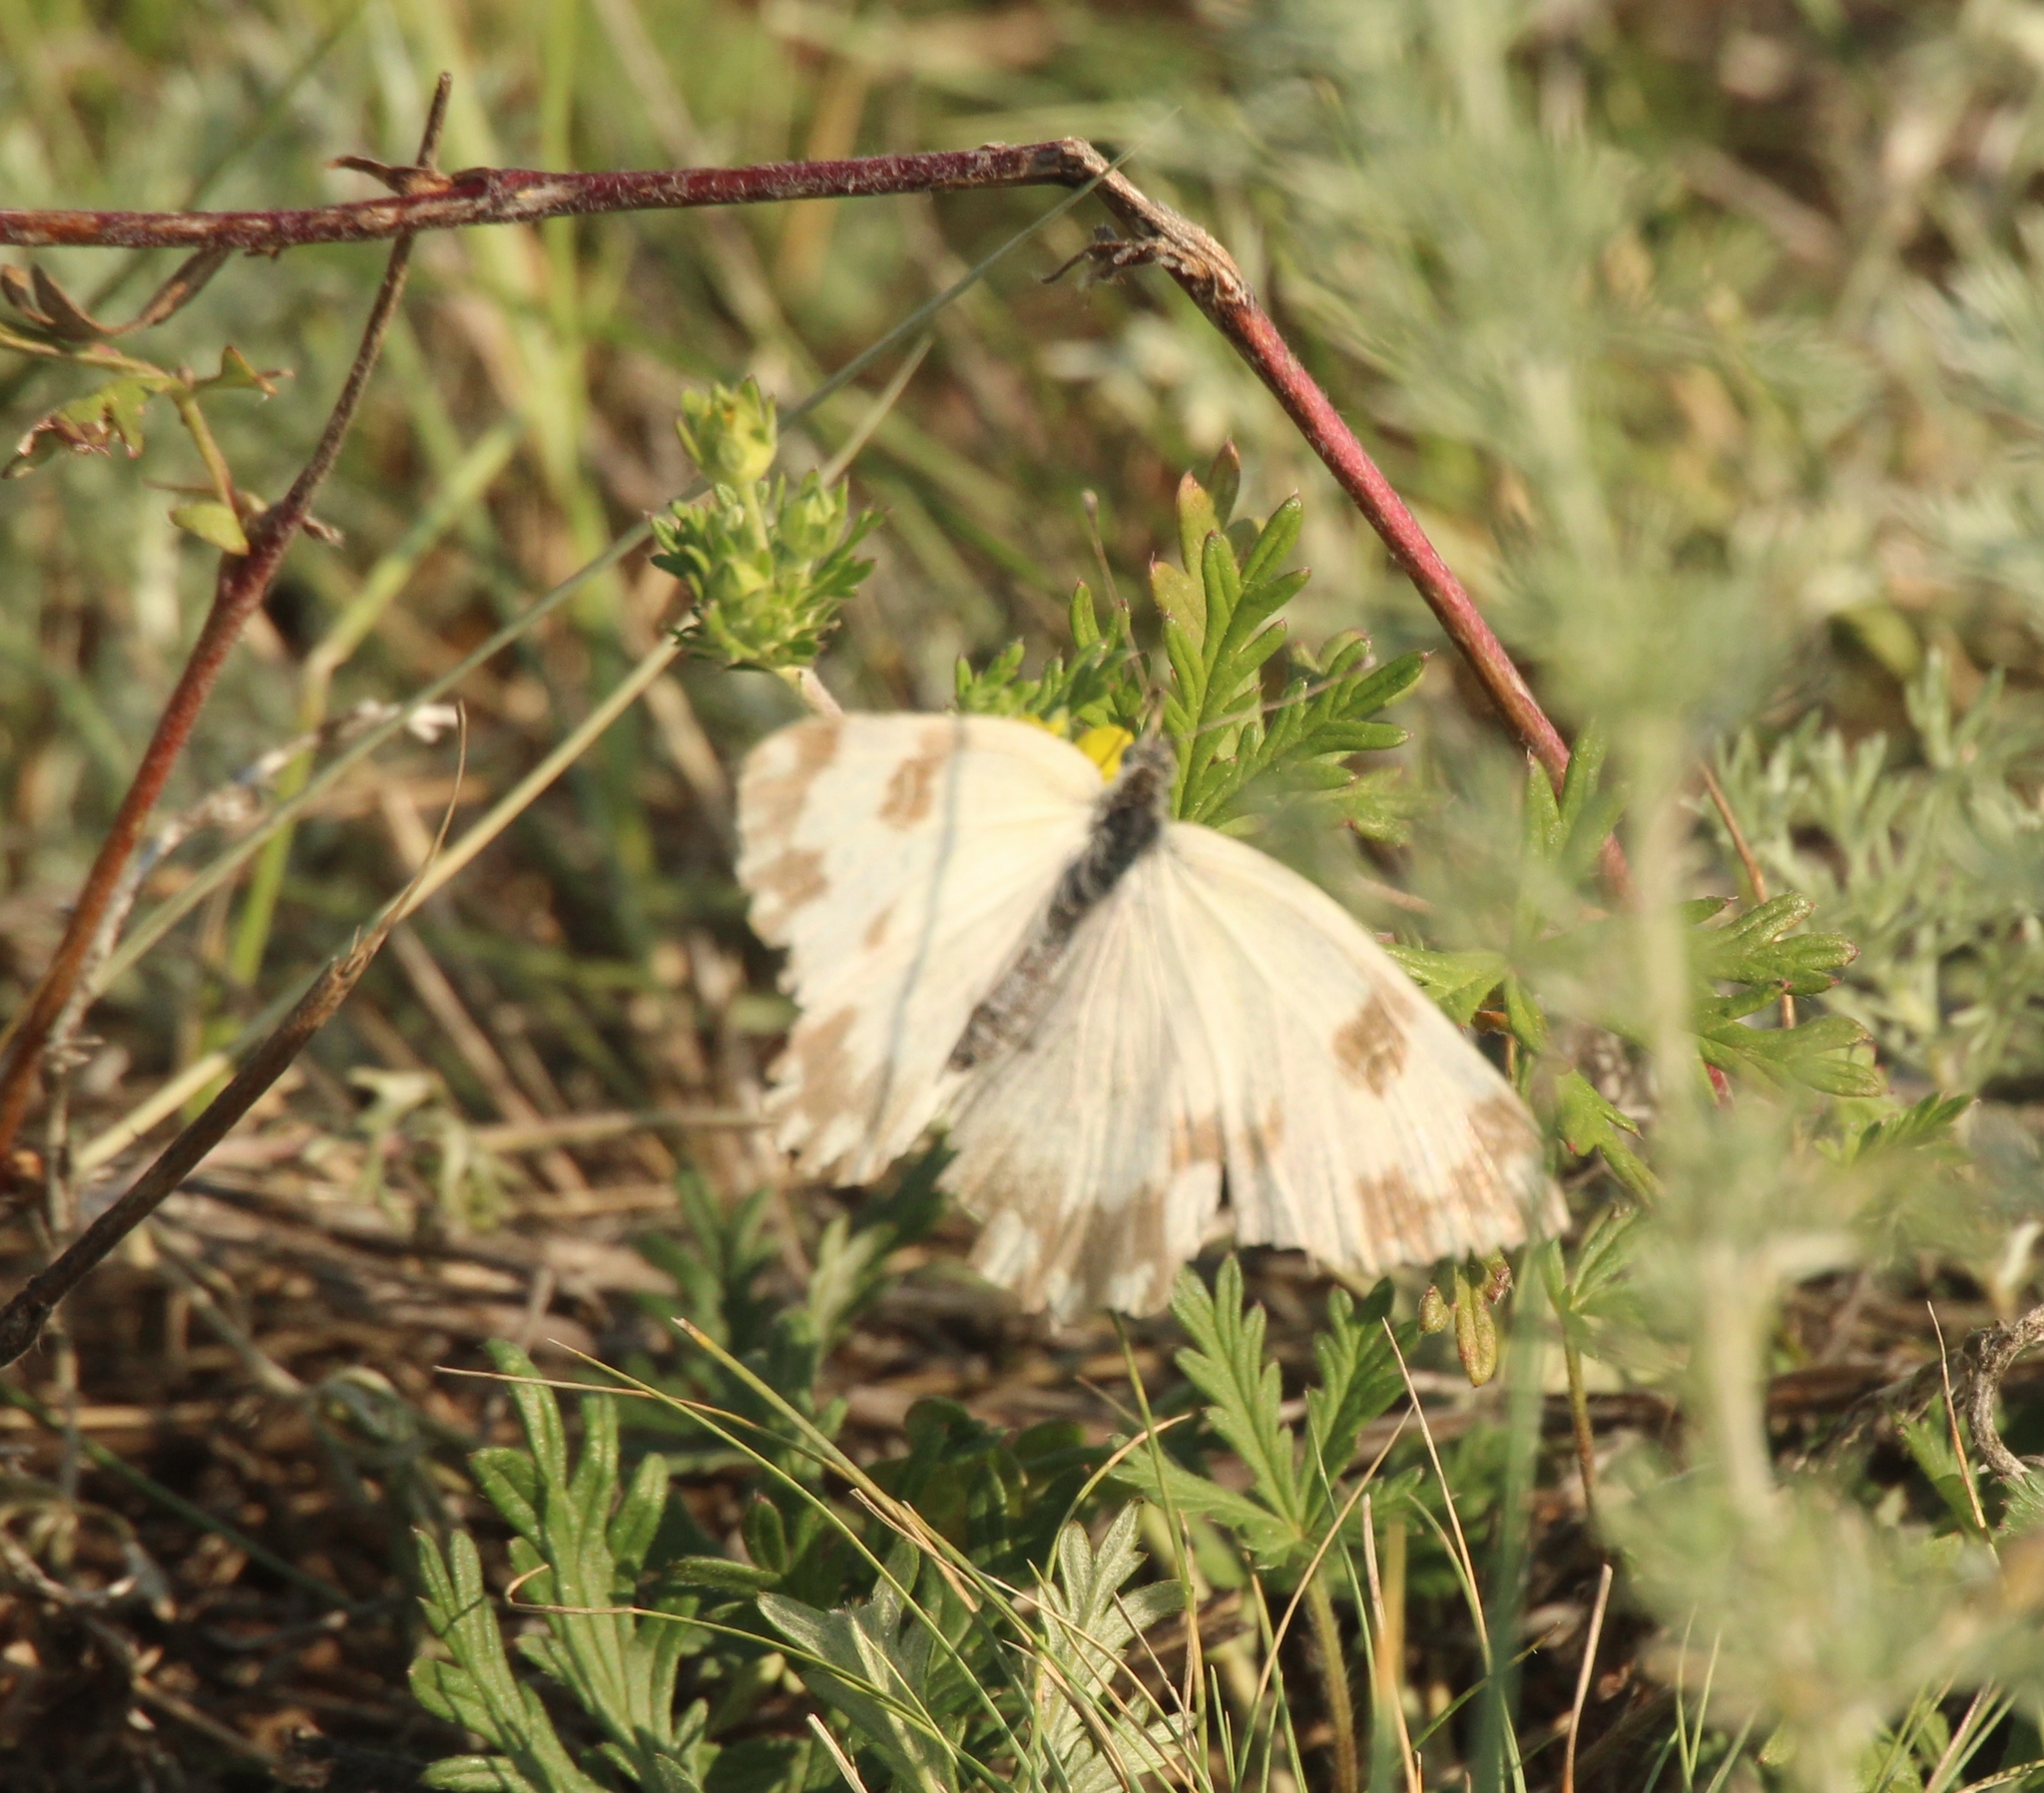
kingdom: Animalia
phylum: Arthropoda
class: Insecta
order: Lepidoptera
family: Pieridae
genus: Pontia
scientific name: Pontia edusa
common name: Eastern bath white
